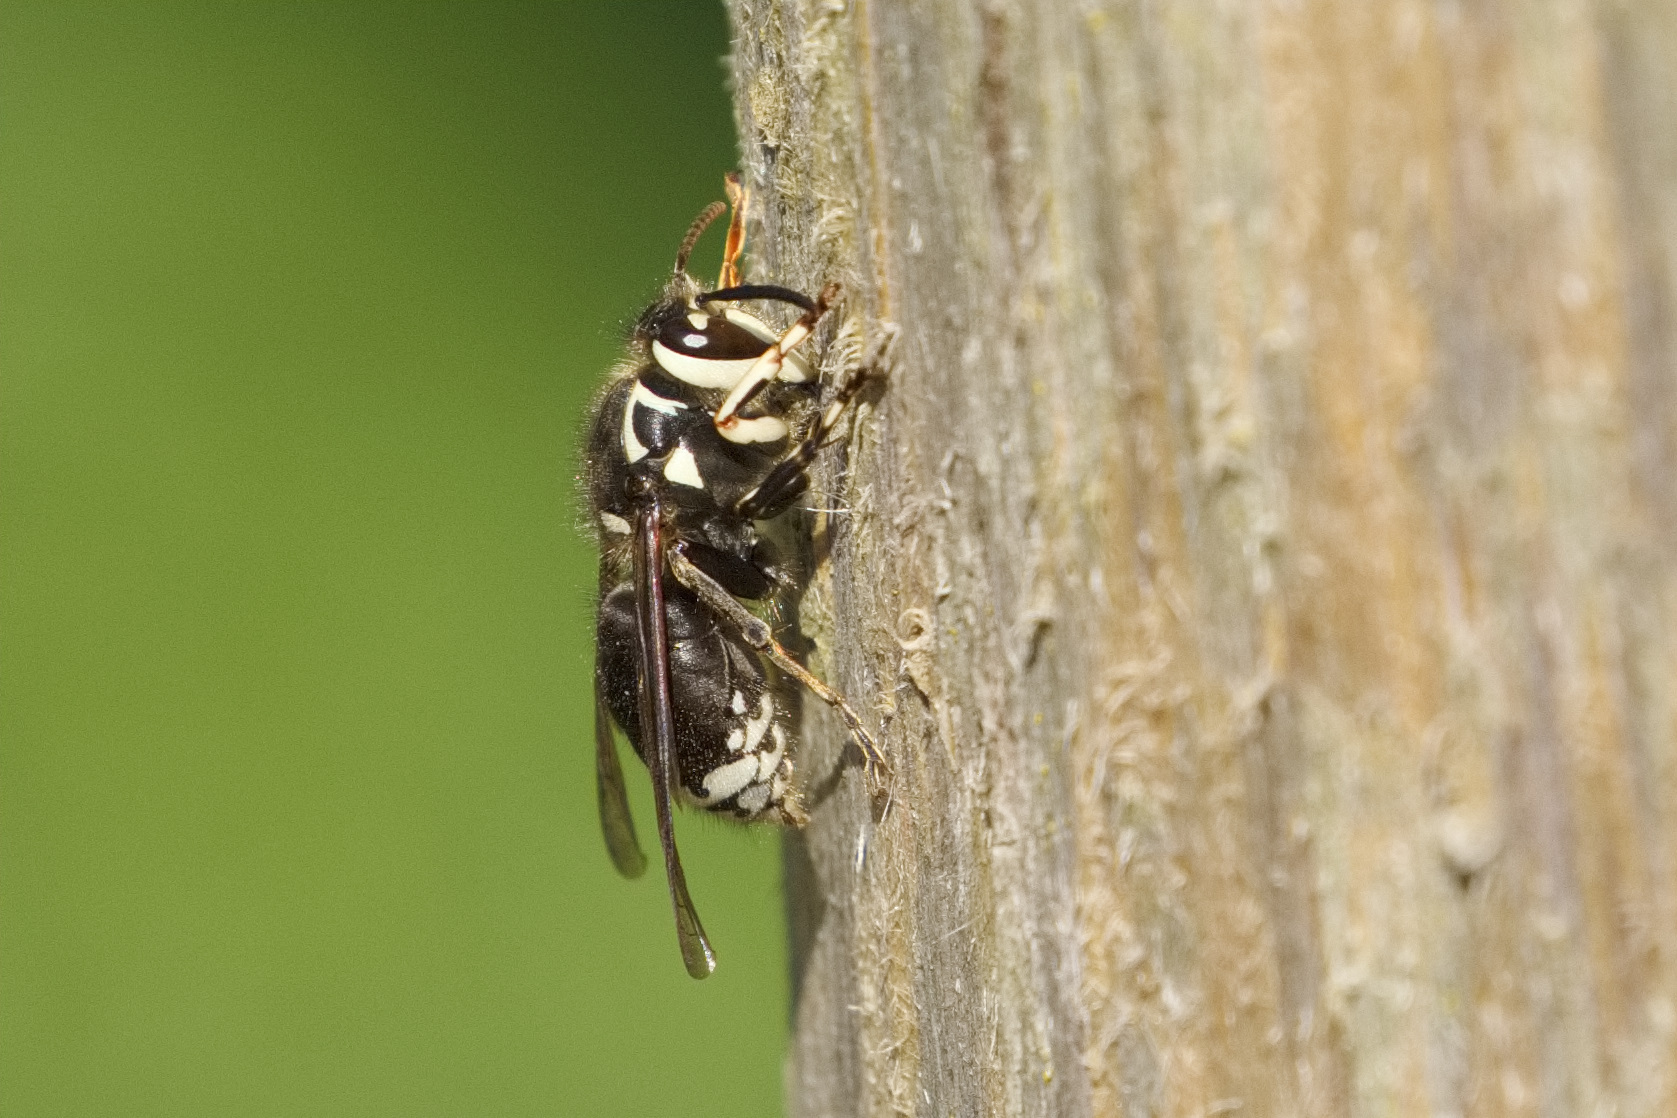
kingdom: Animalia
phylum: Arthropoda
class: Insecta
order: Hymenoptera
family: Vespidae
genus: Dolichovespula
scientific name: Dolichovespula maculata
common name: Bald-faced hornet
